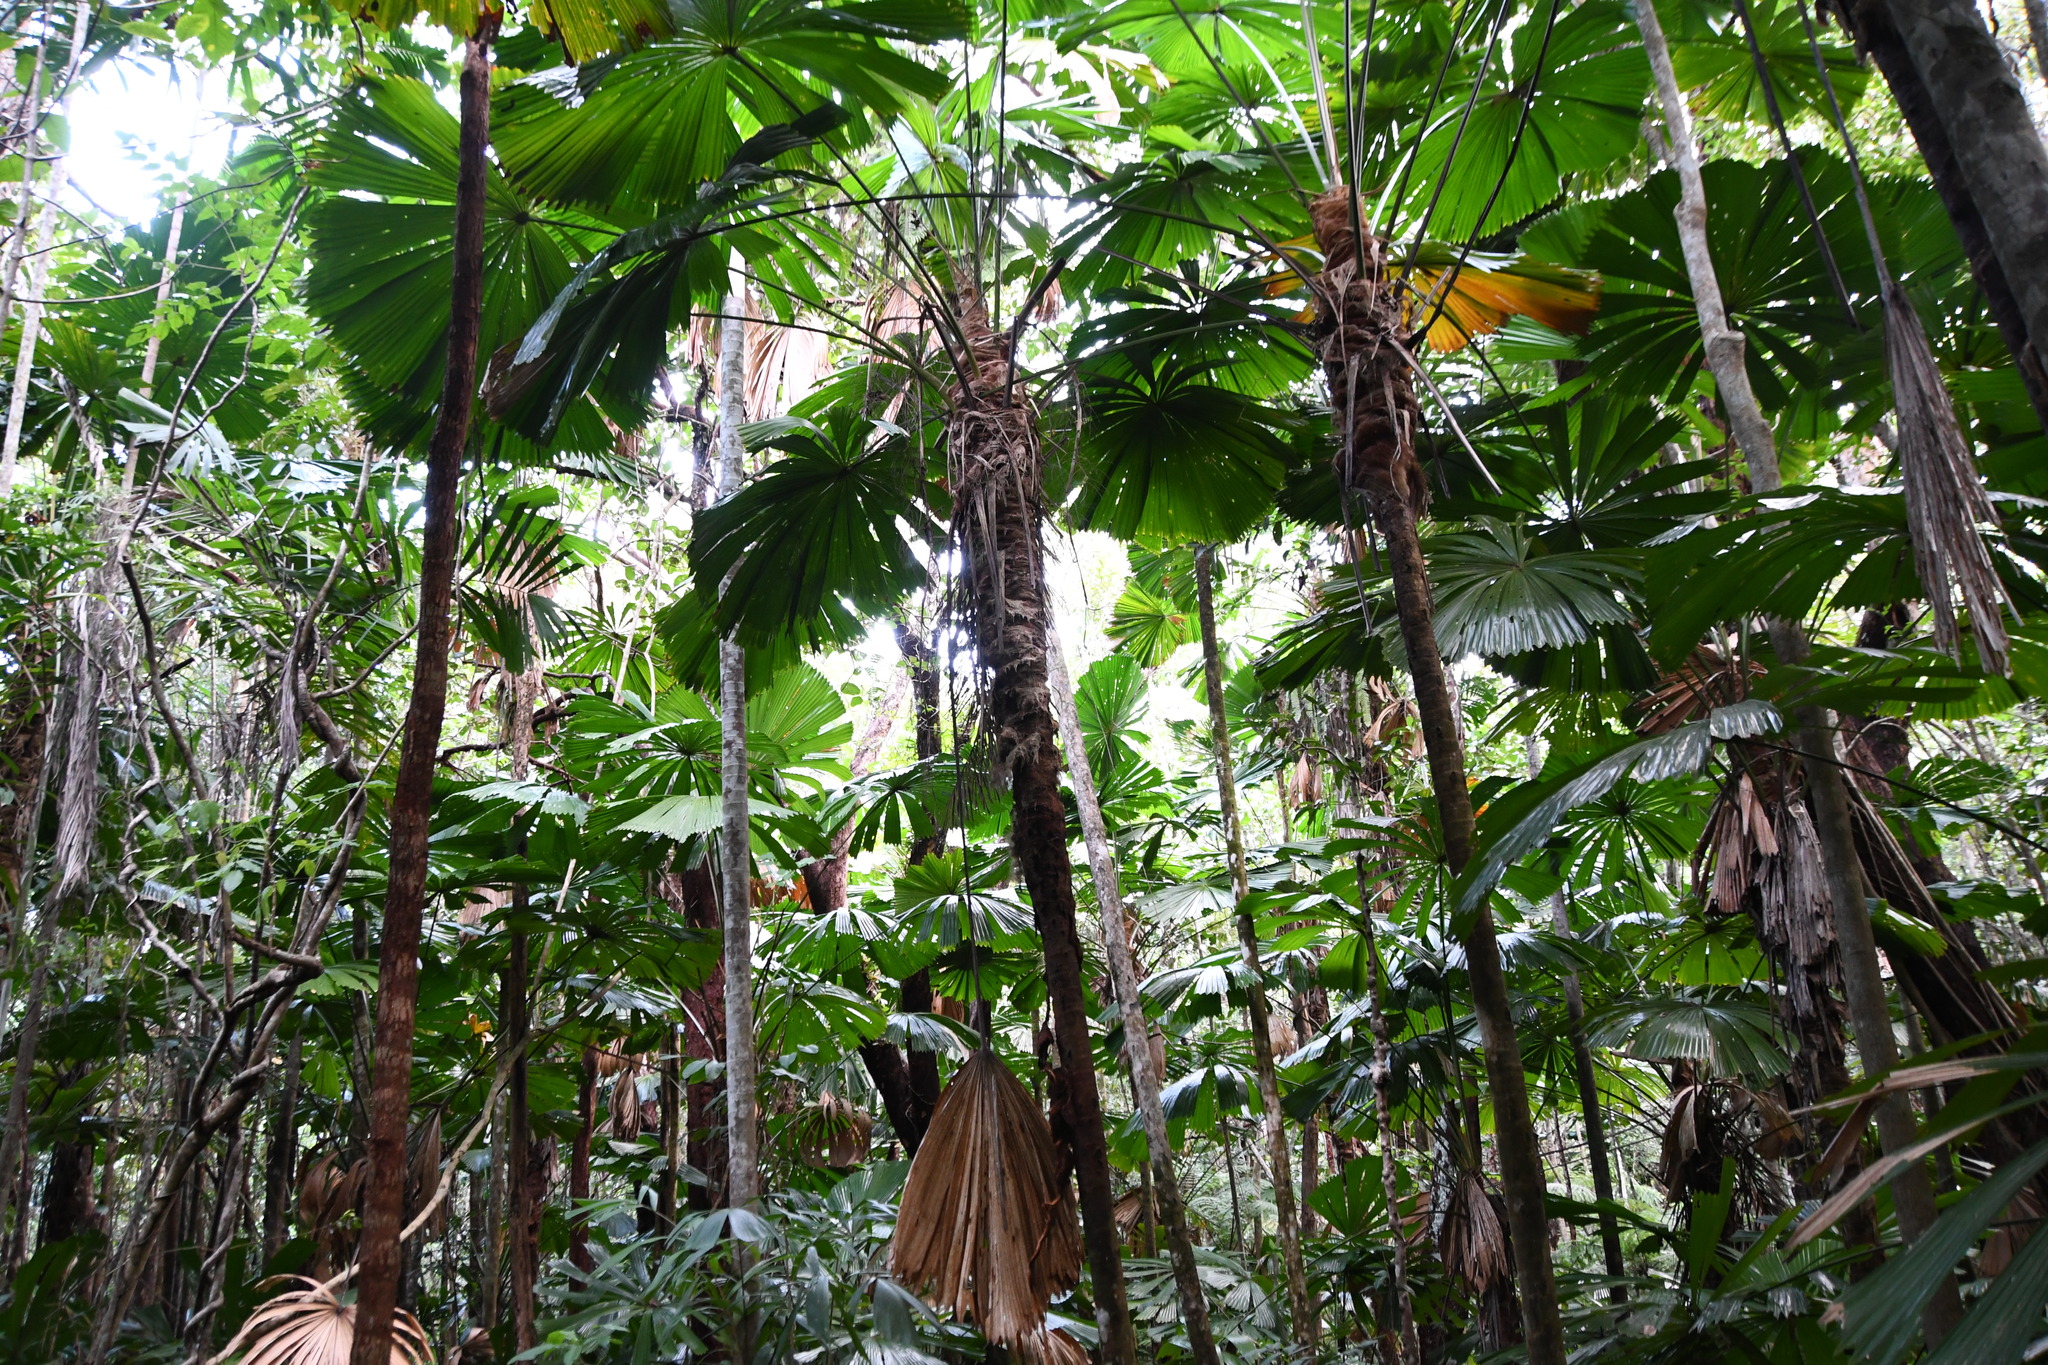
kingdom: Plantae
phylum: Tracheophyta
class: Liliopsida
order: Arecales
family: Arecaceae
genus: Licuala
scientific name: Licuala ramsayi
